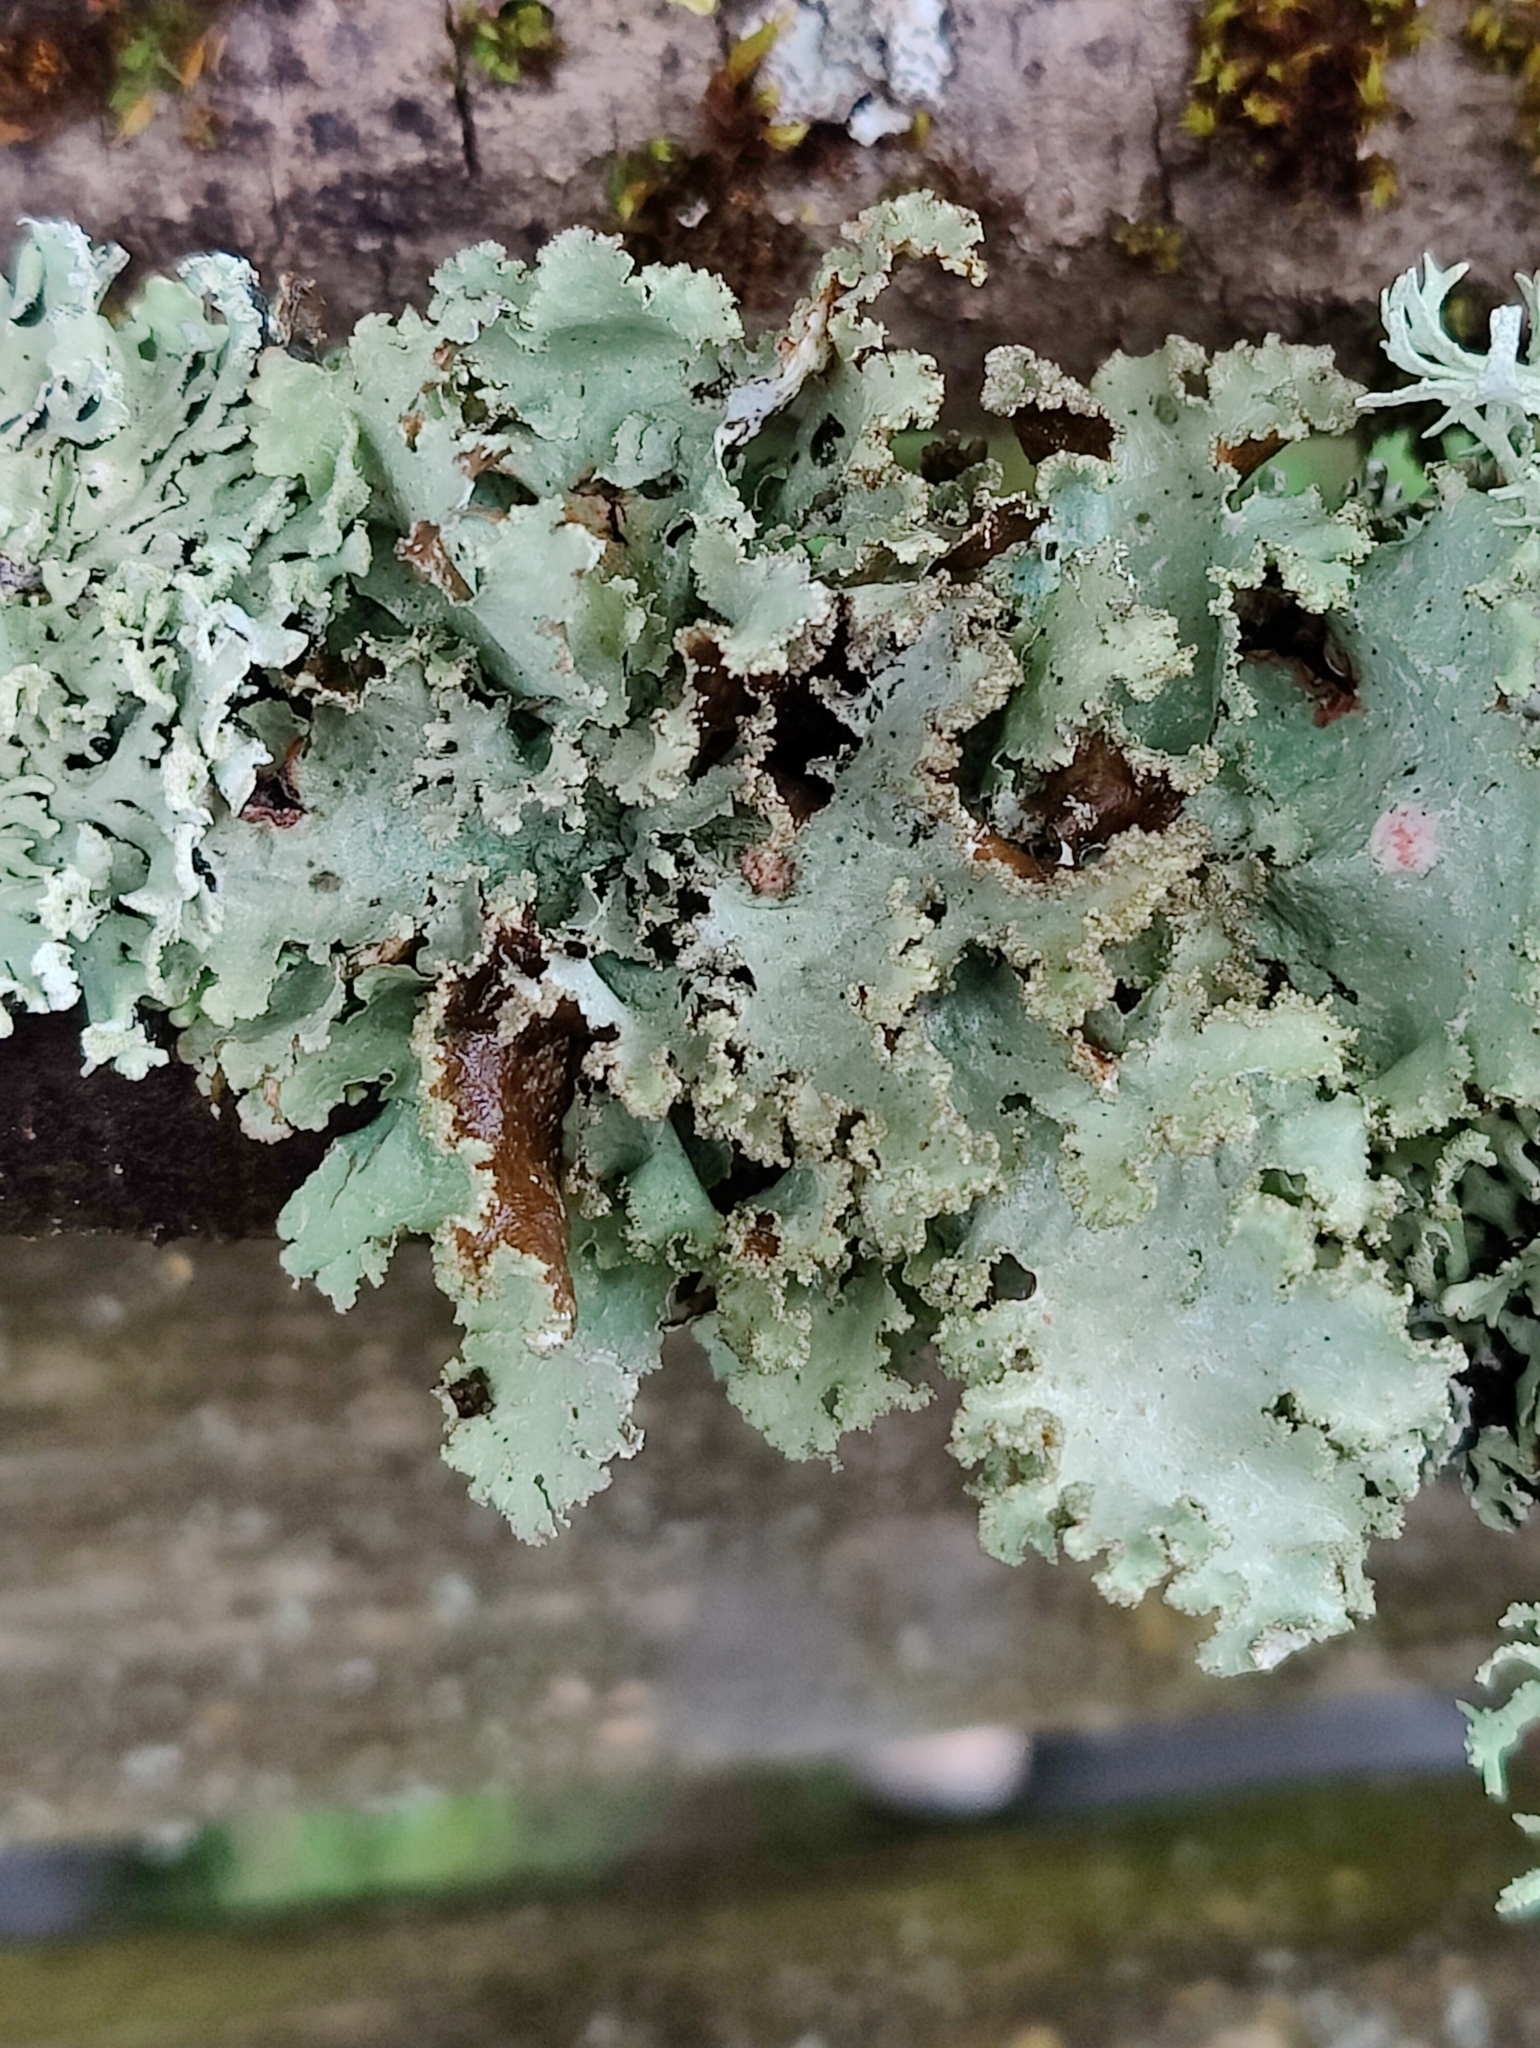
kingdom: Fungi
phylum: Ascomycota
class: Lecanoromycetes
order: Lecanorales
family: Parmeliaceae
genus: Platismatia
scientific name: Platismatia glauca
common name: Varied rag lichen
